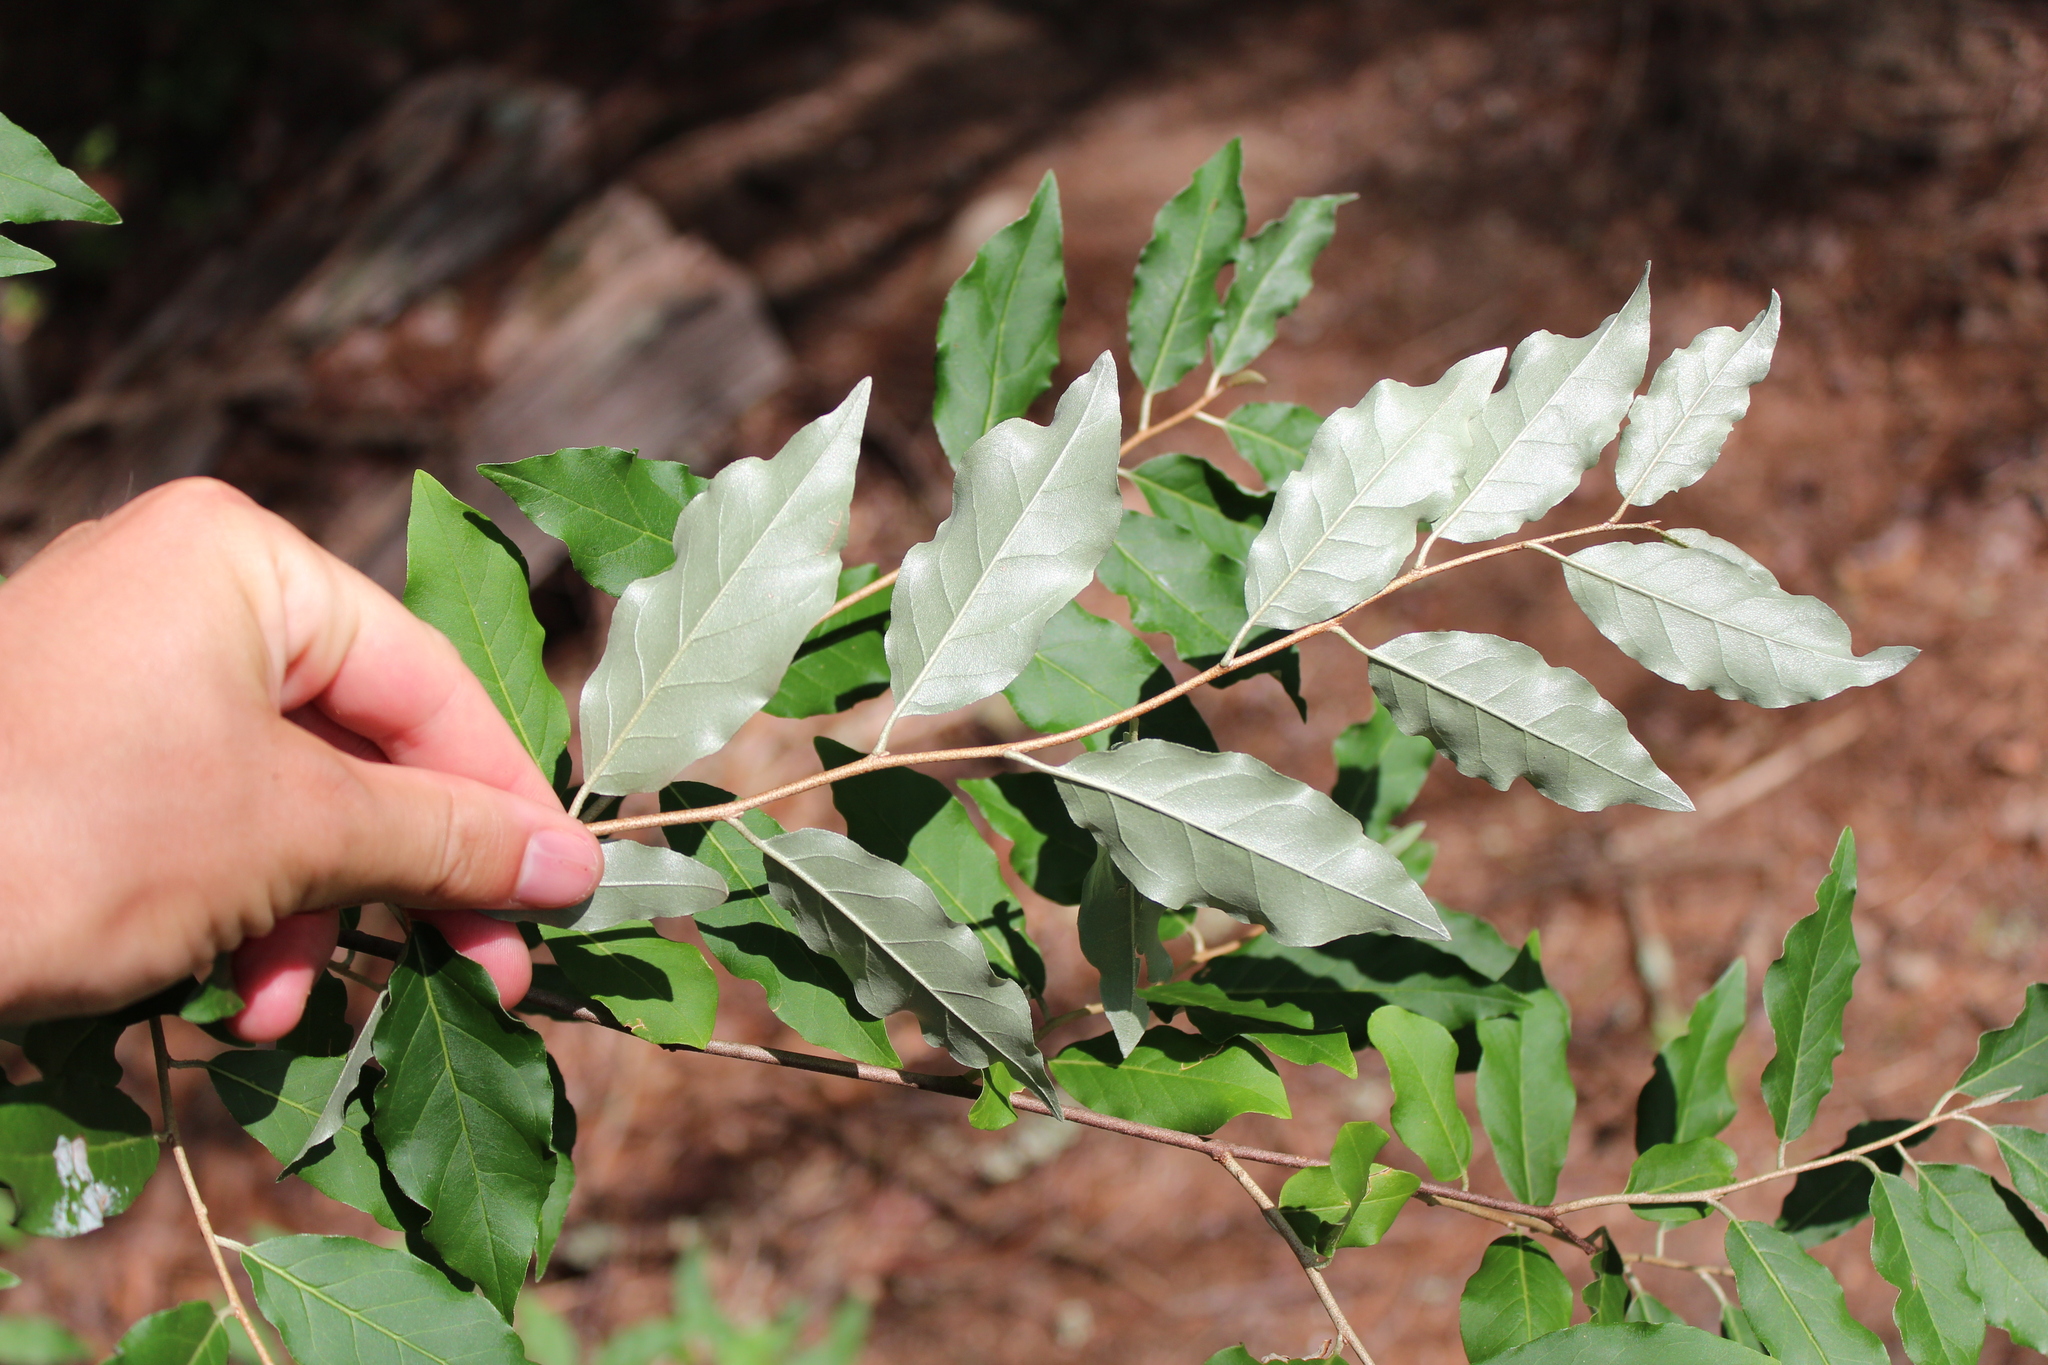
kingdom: Plantae
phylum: Tracheophyta
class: Magnoliopsida
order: Rosales
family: Elaeagnaceae
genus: Elaeagnus
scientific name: Elaeagnus umbellata
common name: Autumn olive
